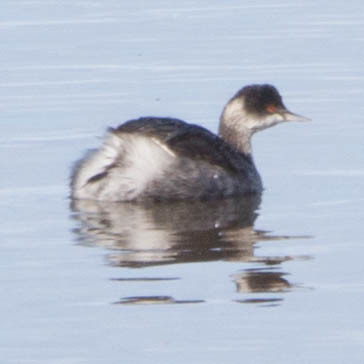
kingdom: Animalia
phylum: Chordata
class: Aves
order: Podicipediformes
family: Podicipedidae
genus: Podiceps
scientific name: Podiceps nigricollis
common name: Black-necked grebe
